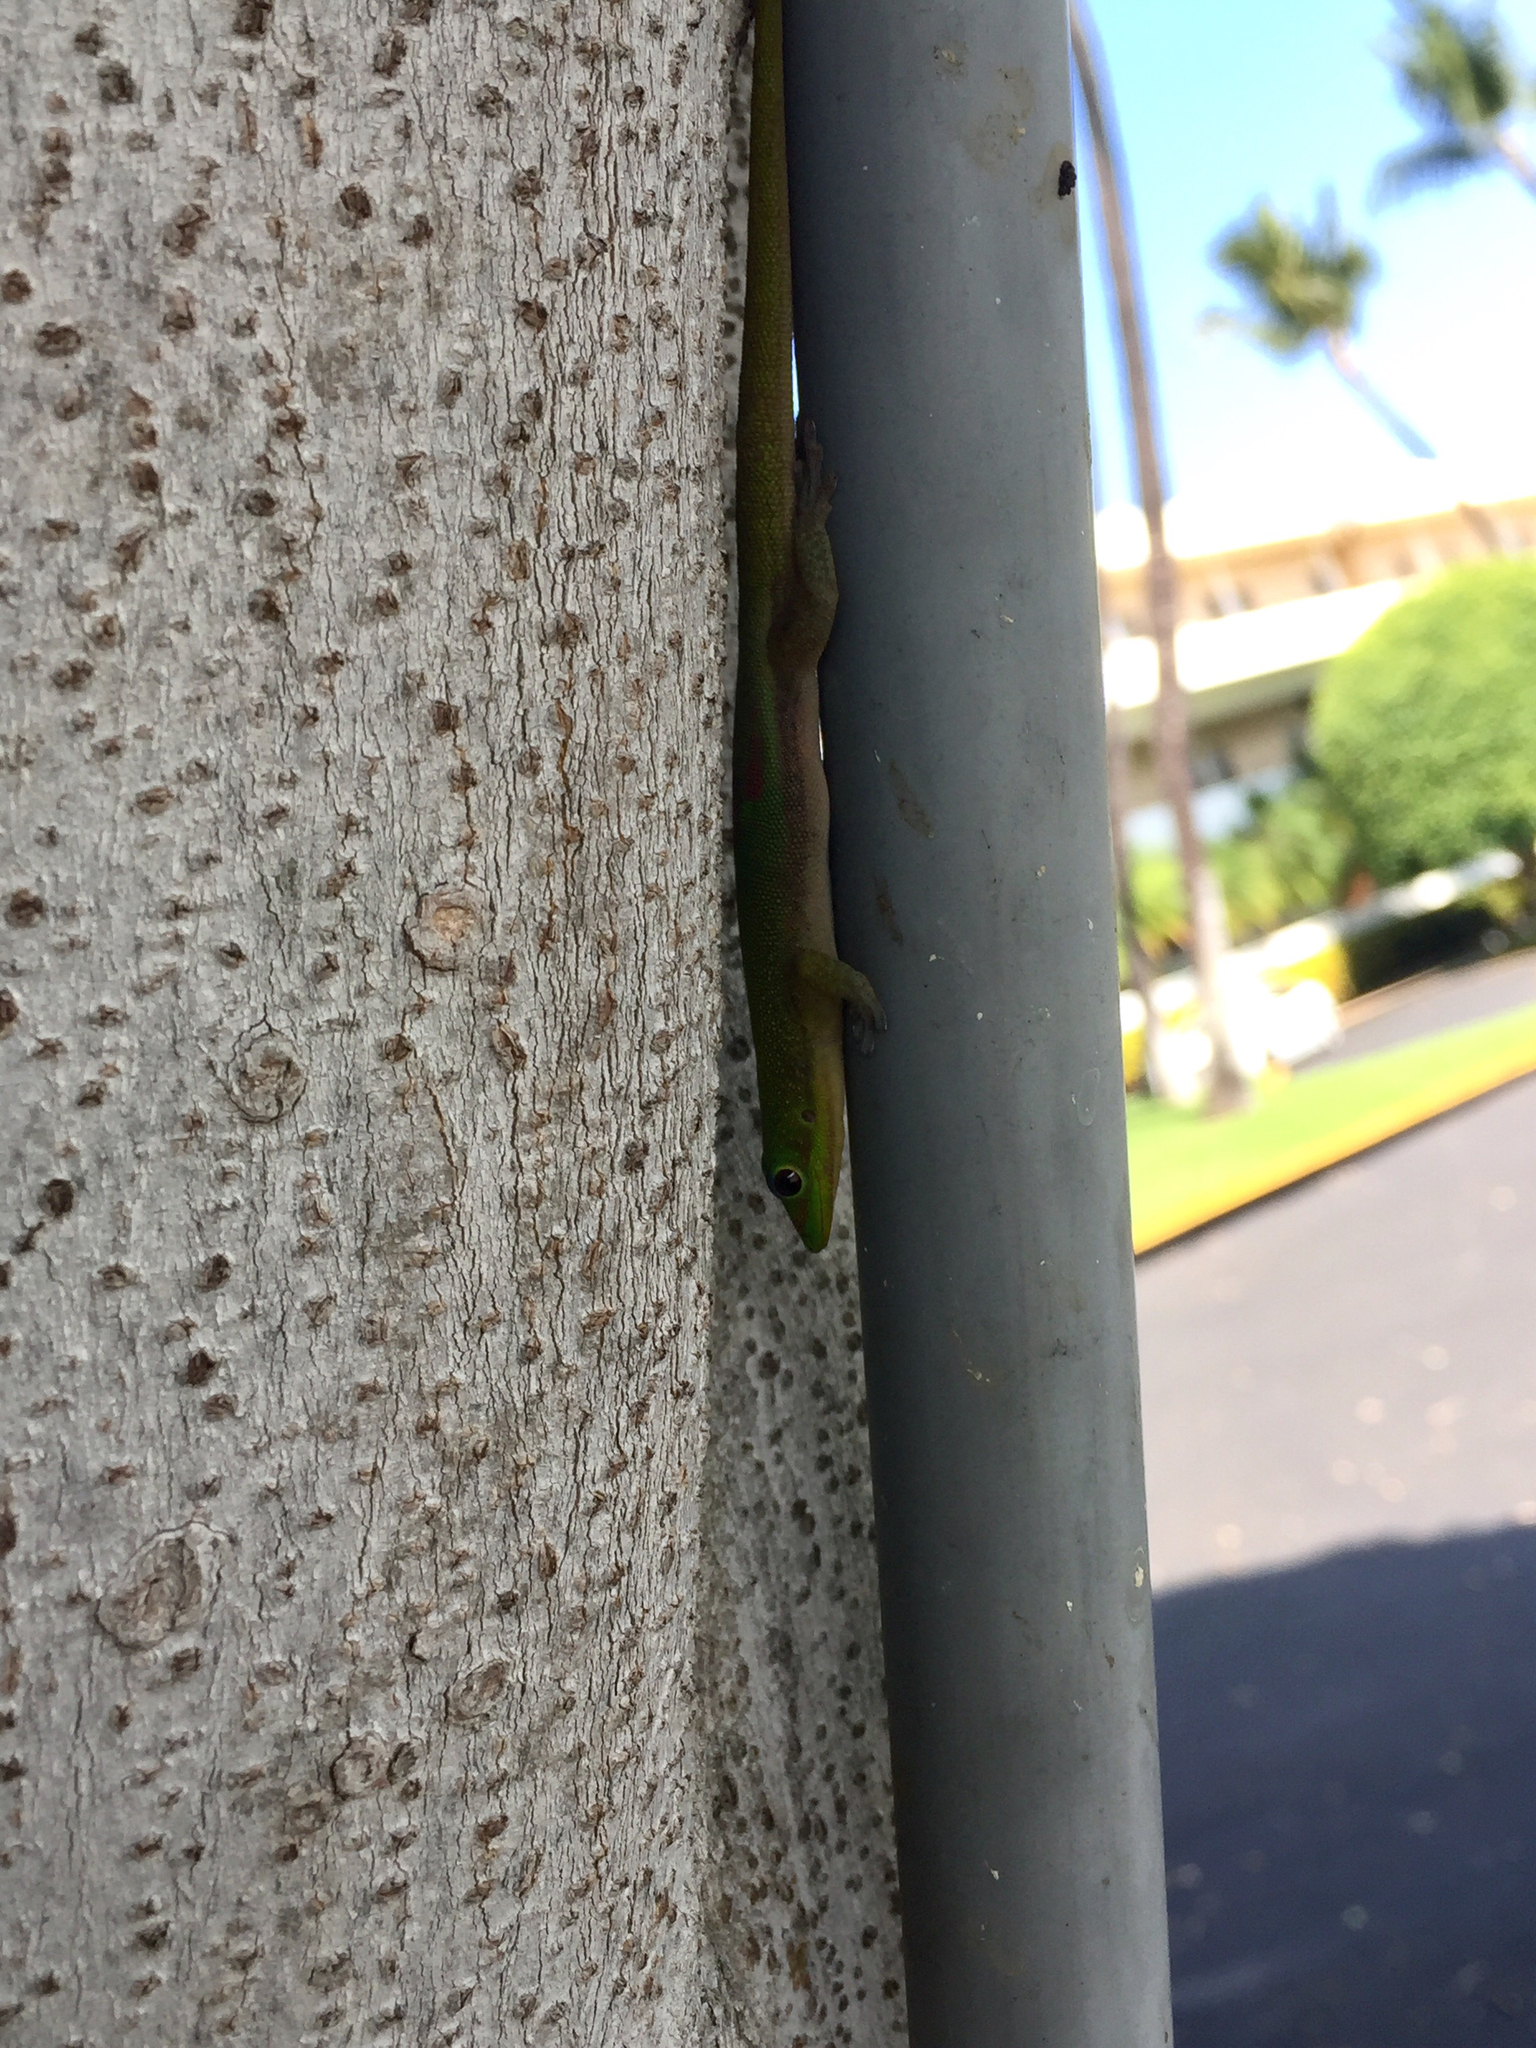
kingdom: Animalia
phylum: Chordata
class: Squamata
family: Gekkonidae
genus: Phelsuma
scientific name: Phelsuma laticauda
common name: Gold dust day gecko
